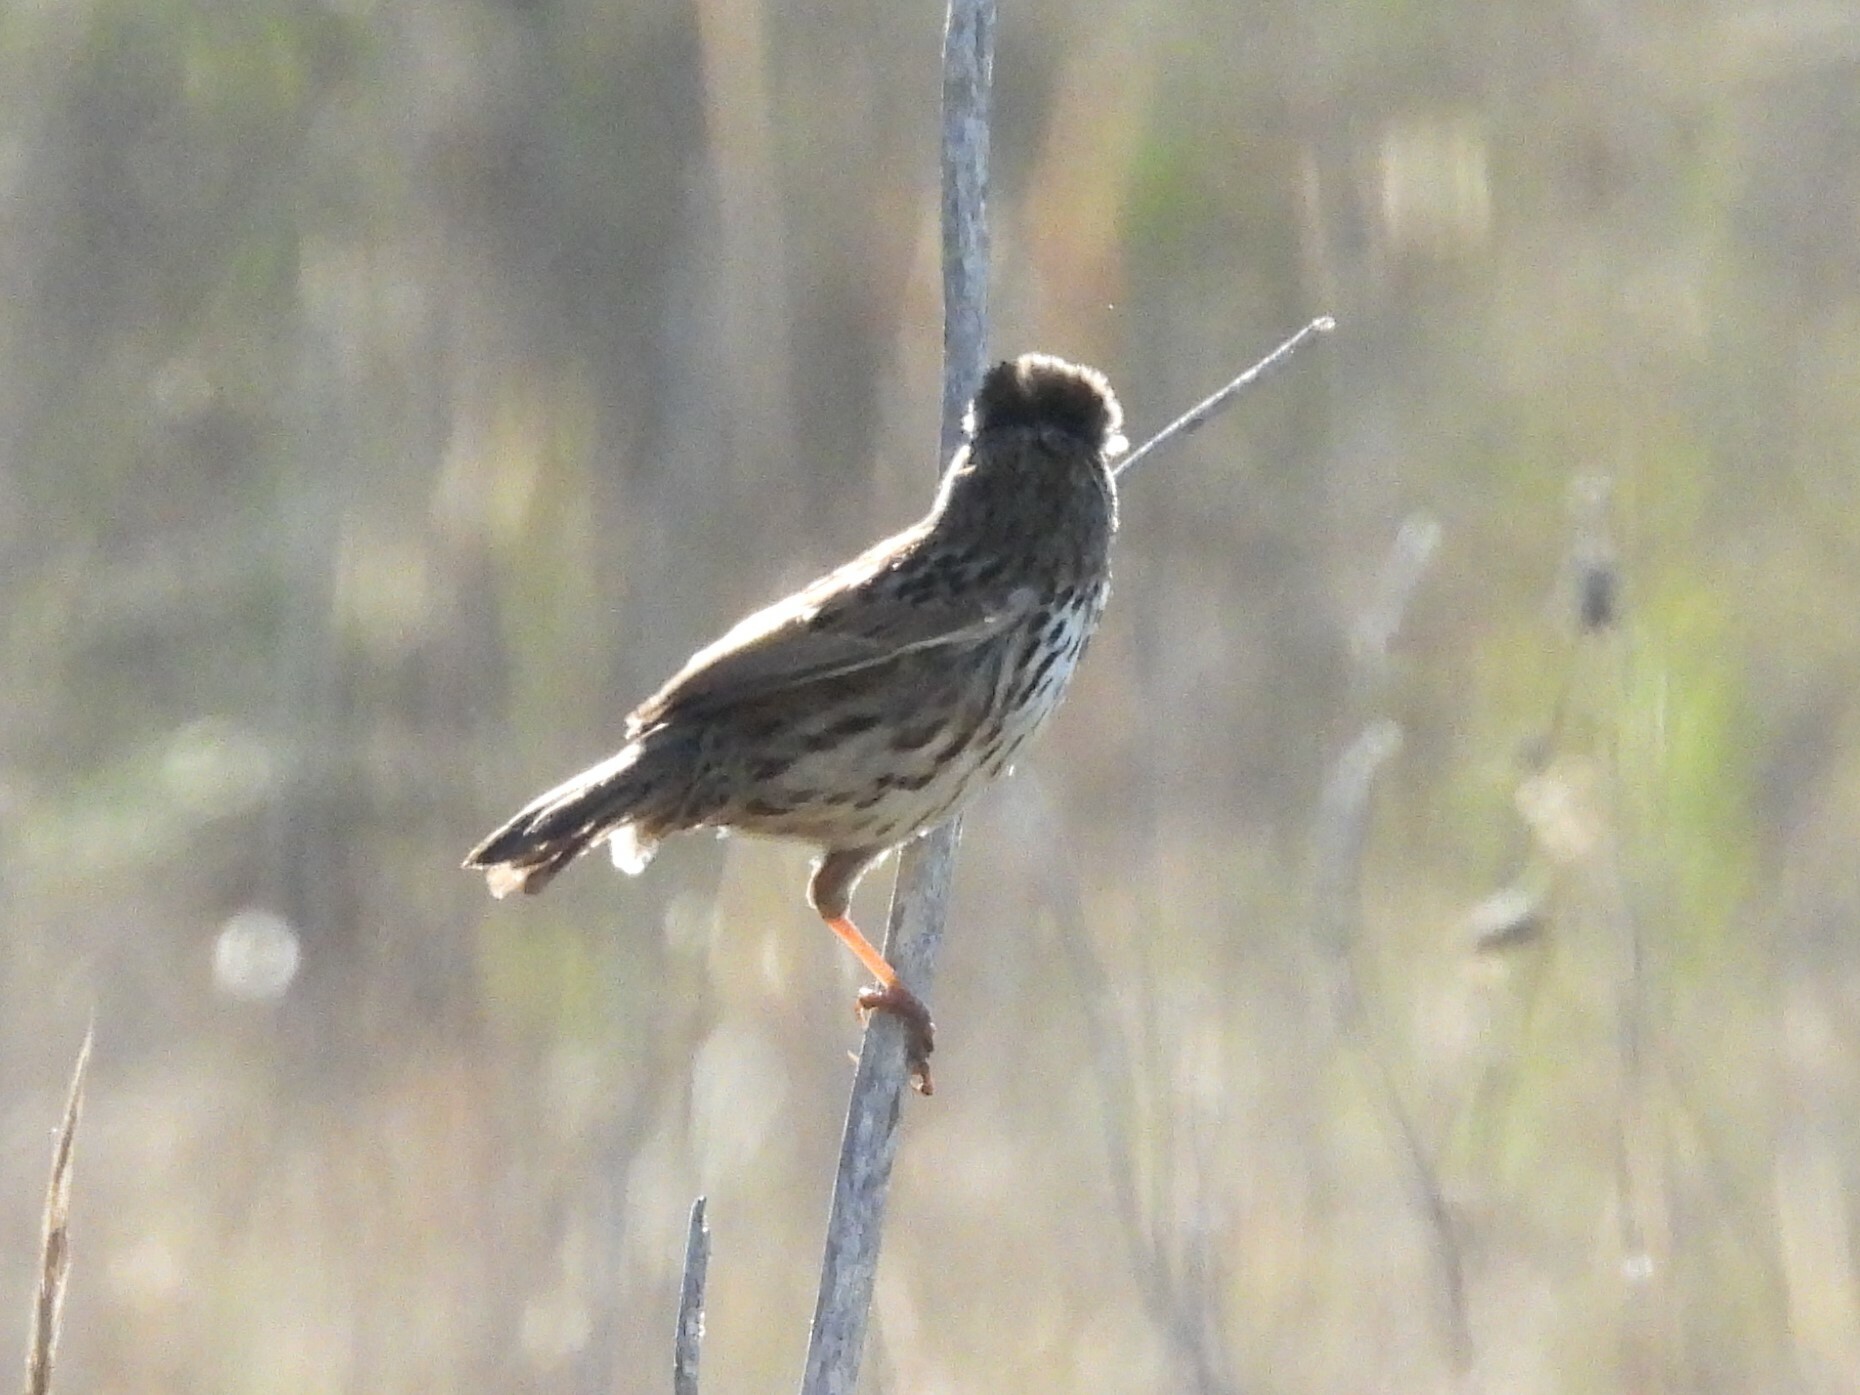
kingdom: Animalia
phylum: Chordata
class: Aves
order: Passeriformes
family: Passerellidae
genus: Melospiza
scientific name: Melospiza melodia
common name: Song sparrow
